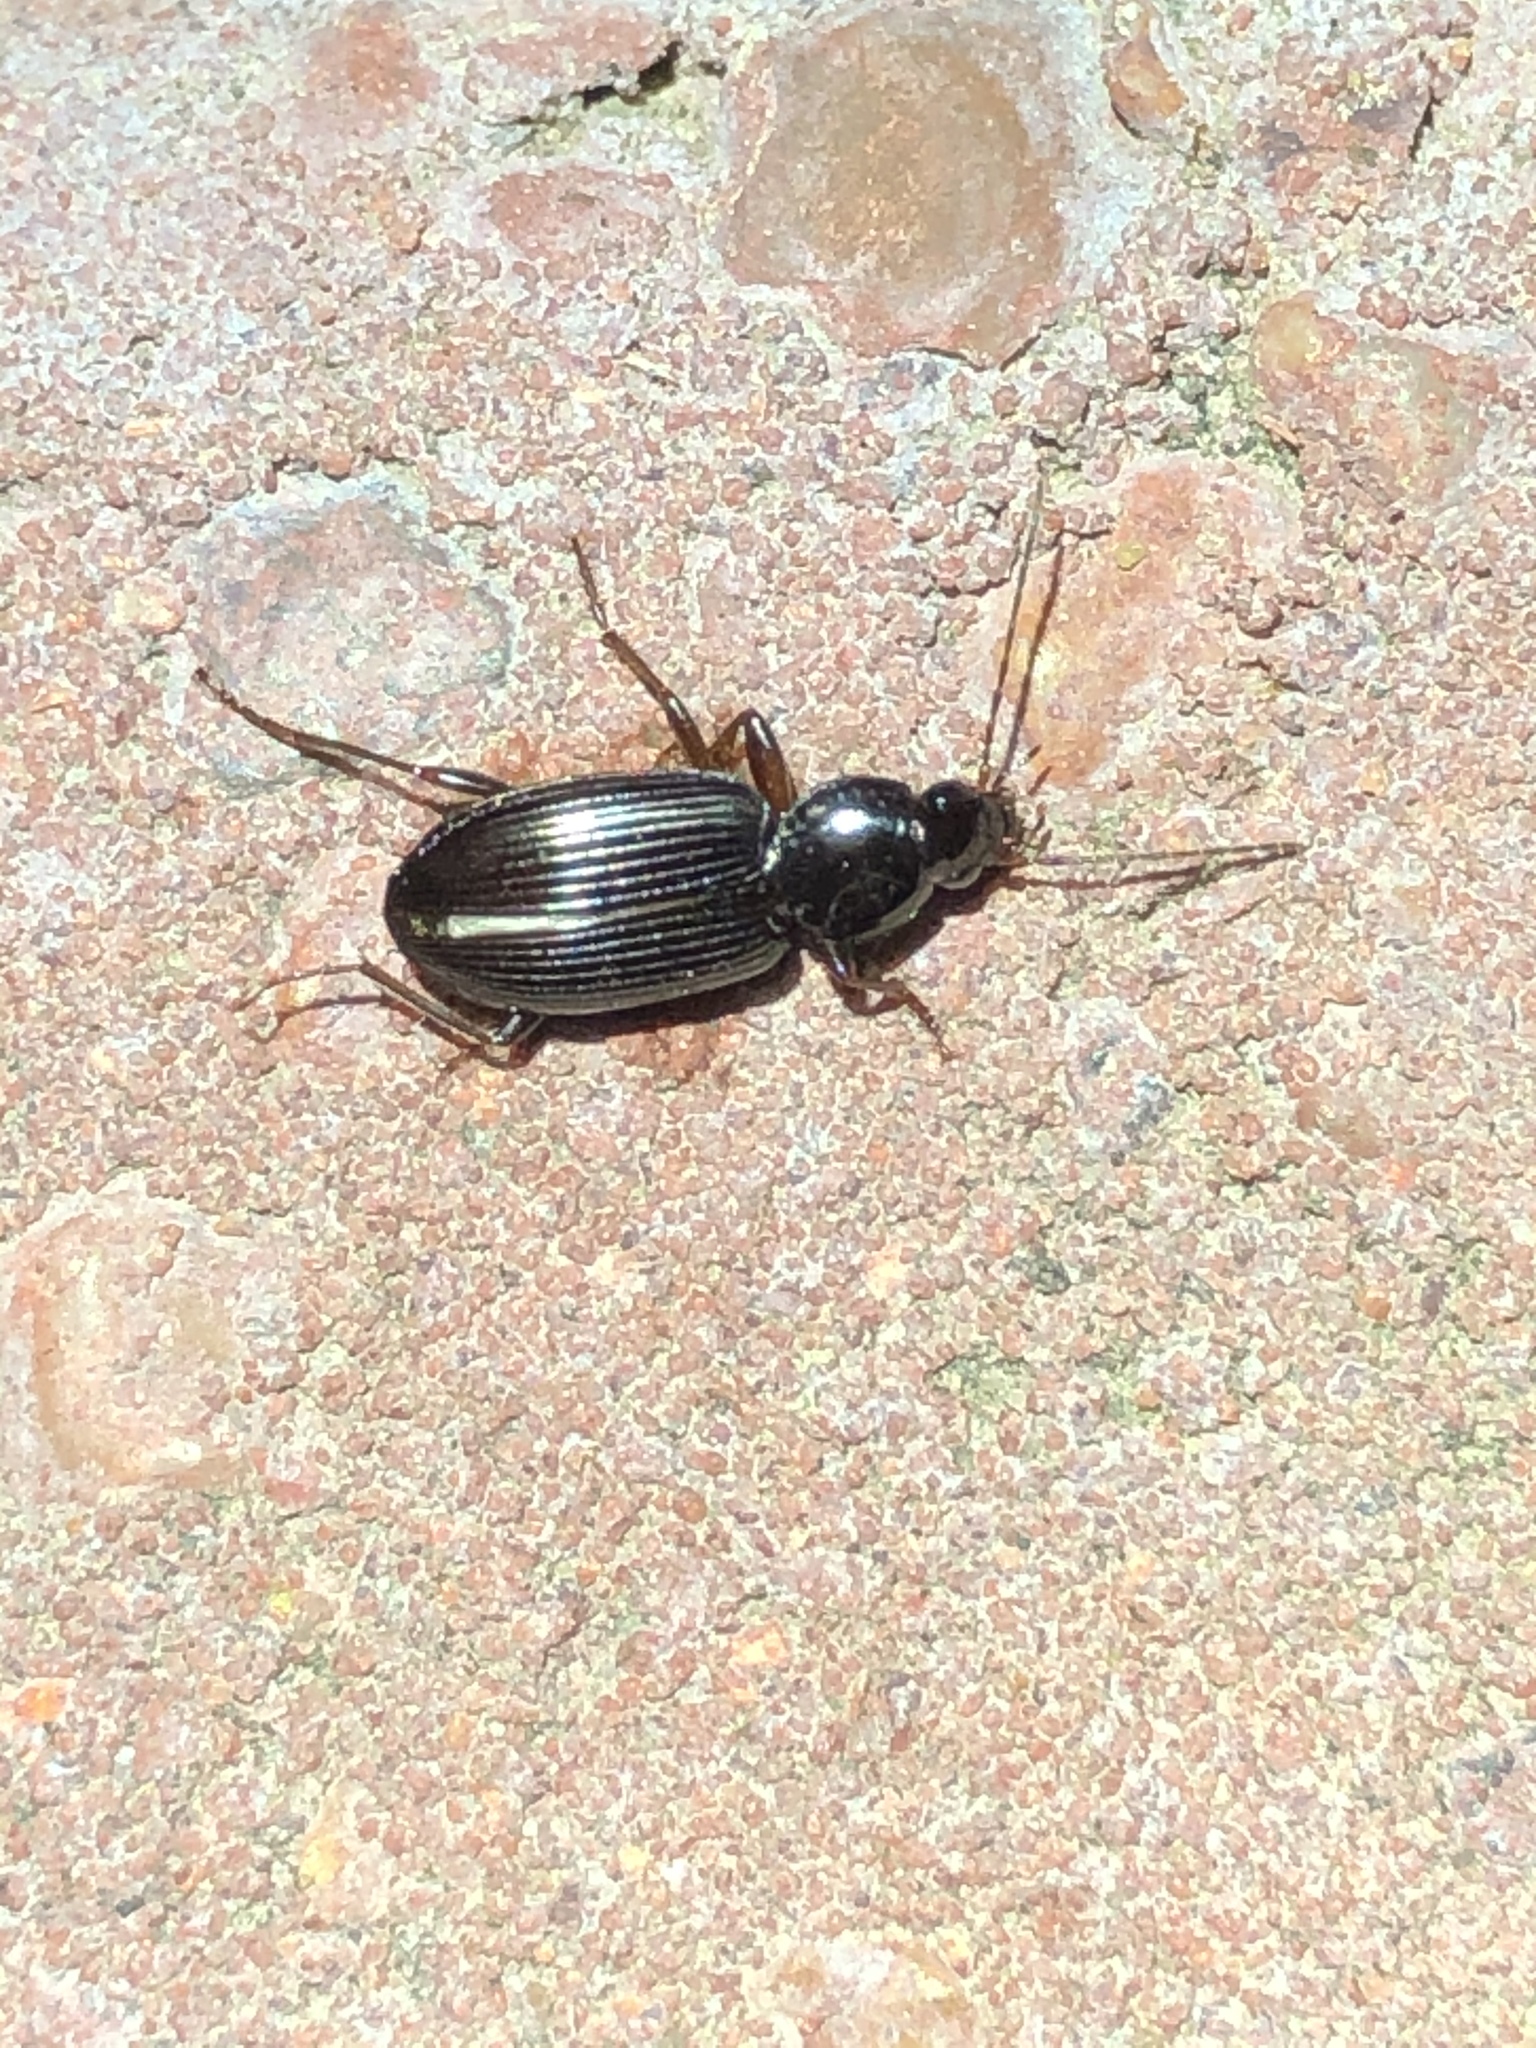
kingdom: Animalia
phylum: Arthropoda
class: Insecta
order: Coleoptera
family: Carabidae
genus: Agonum
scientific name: Agonum punctiforme
